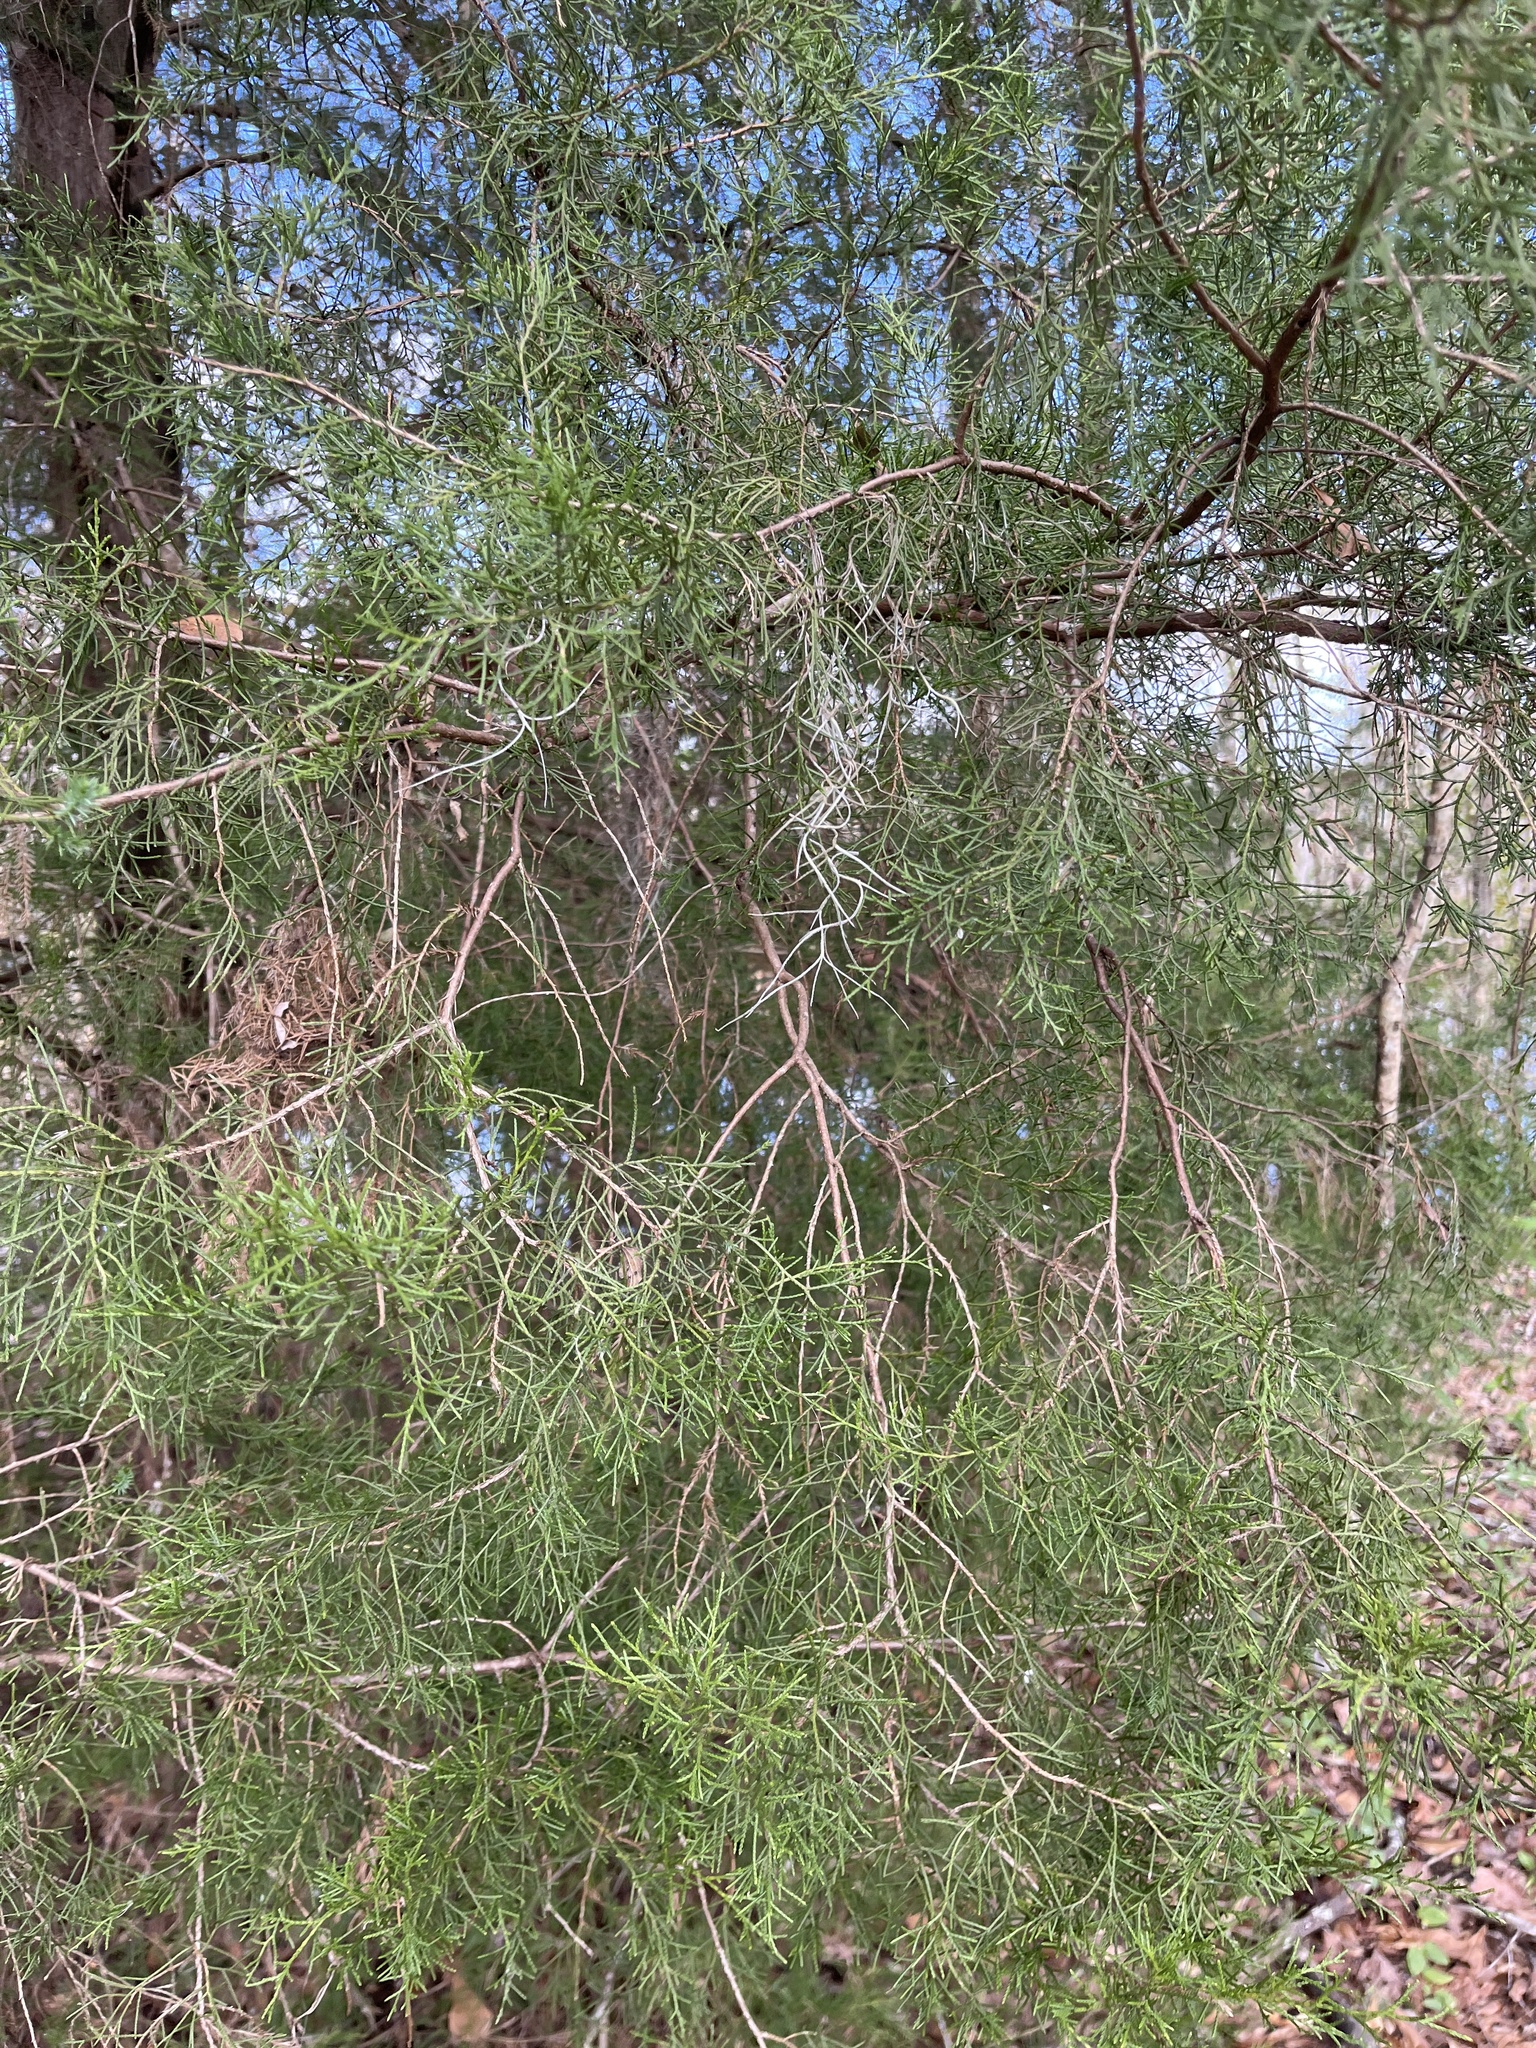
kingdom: Plantae
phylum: Tracheophyta
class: Pinopsida
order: Pinales
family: Cupressaceae
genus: Juniperus
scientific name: Juniperus virginiana
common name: Red juniper
